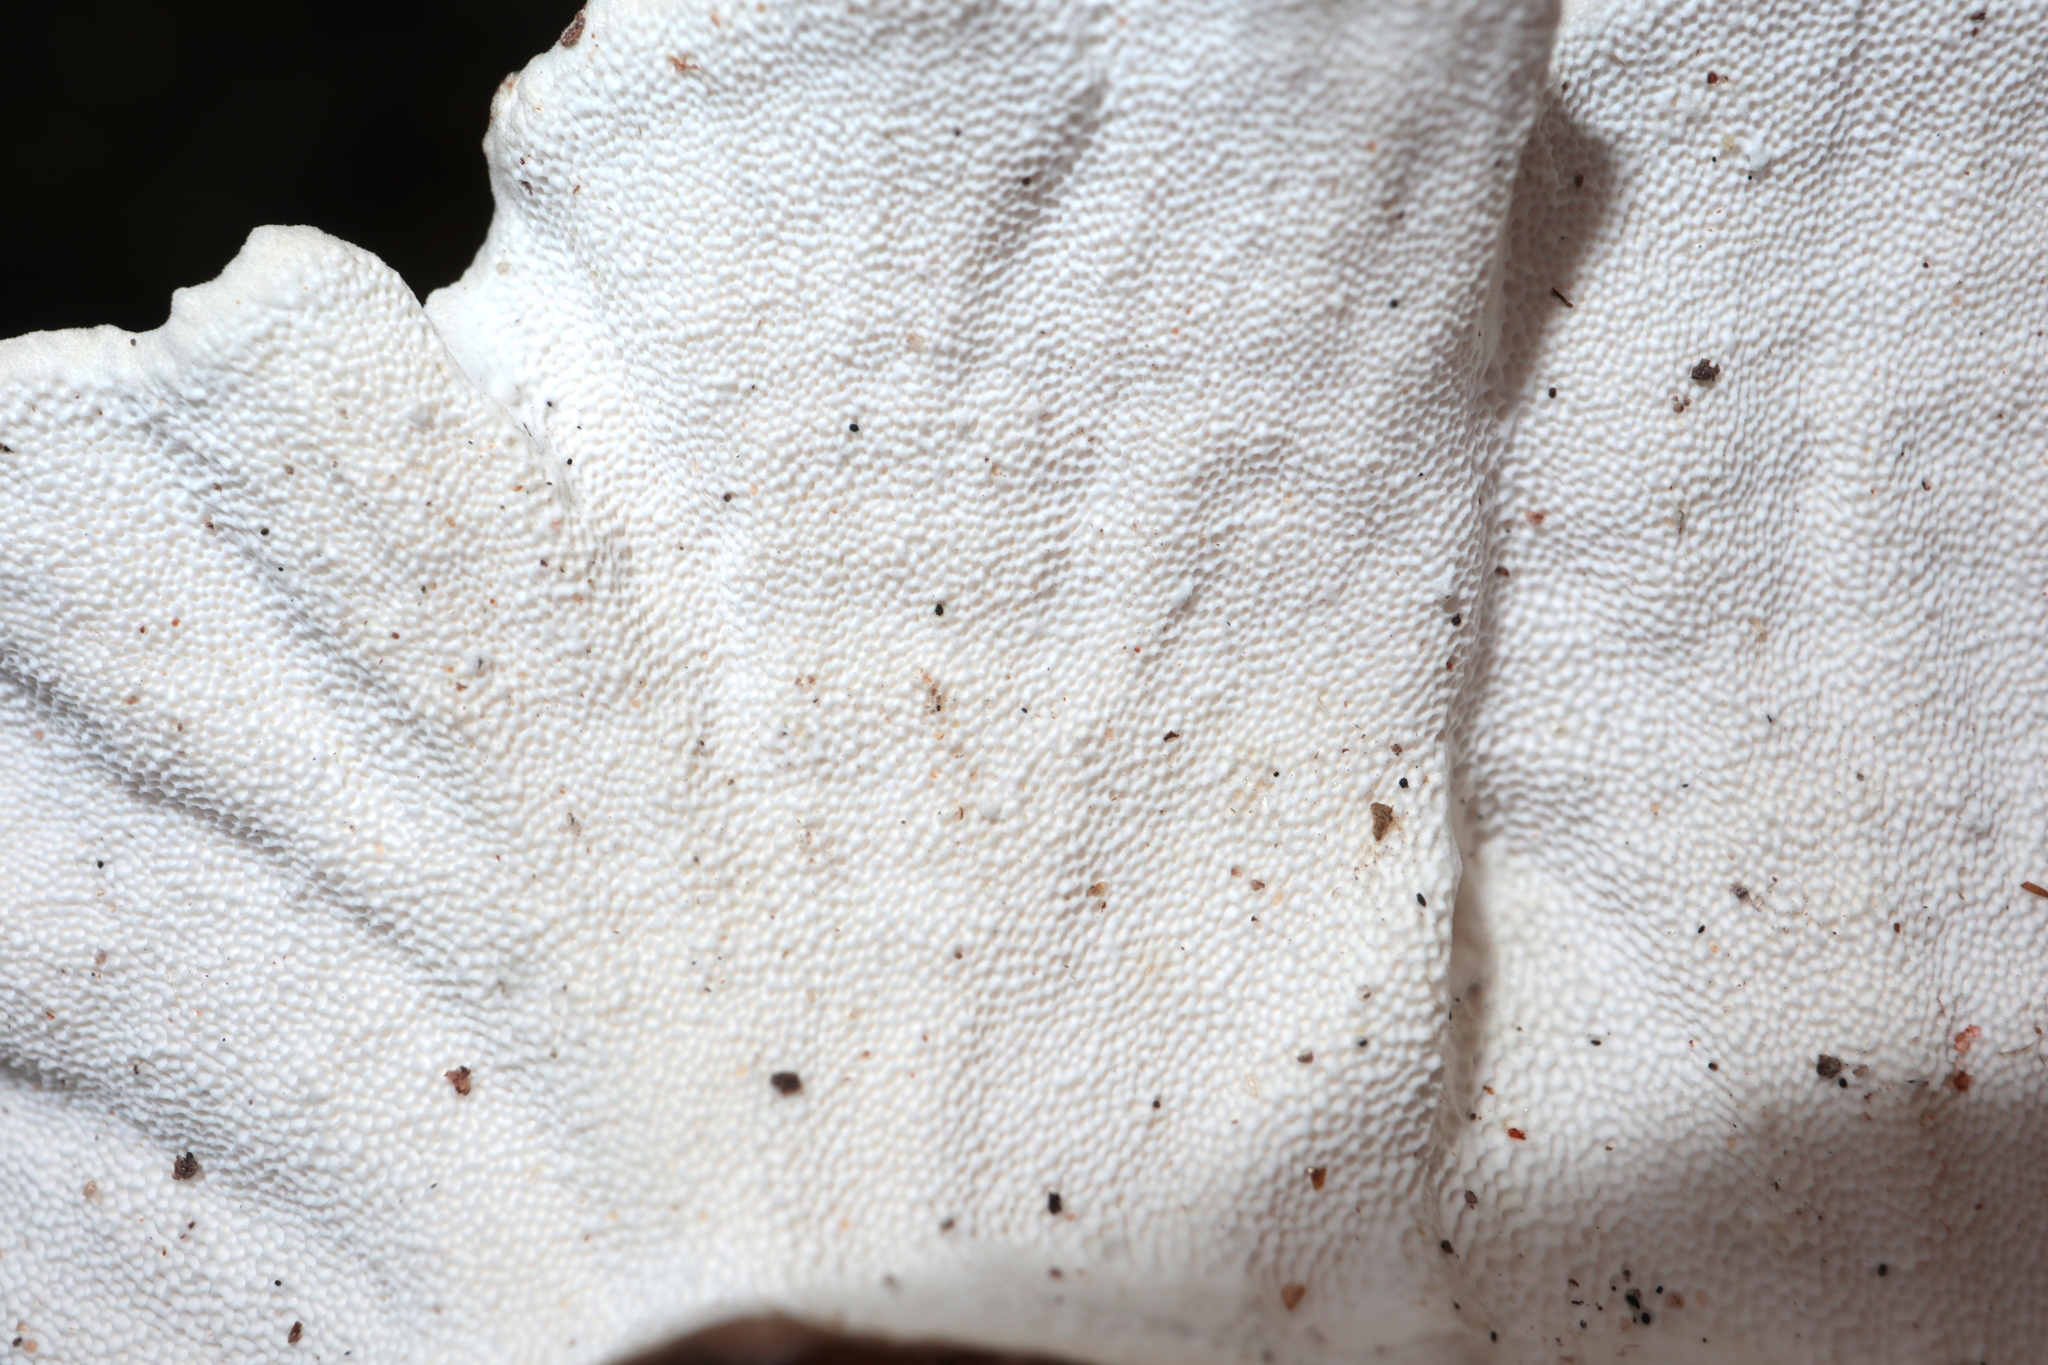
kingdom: Fungi
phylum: Basidiomycota
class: Agaricomycetes
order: Polyporales
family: Polyporaceae
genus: Trametes
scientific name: Trametes versicolor
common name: Turkeytail
